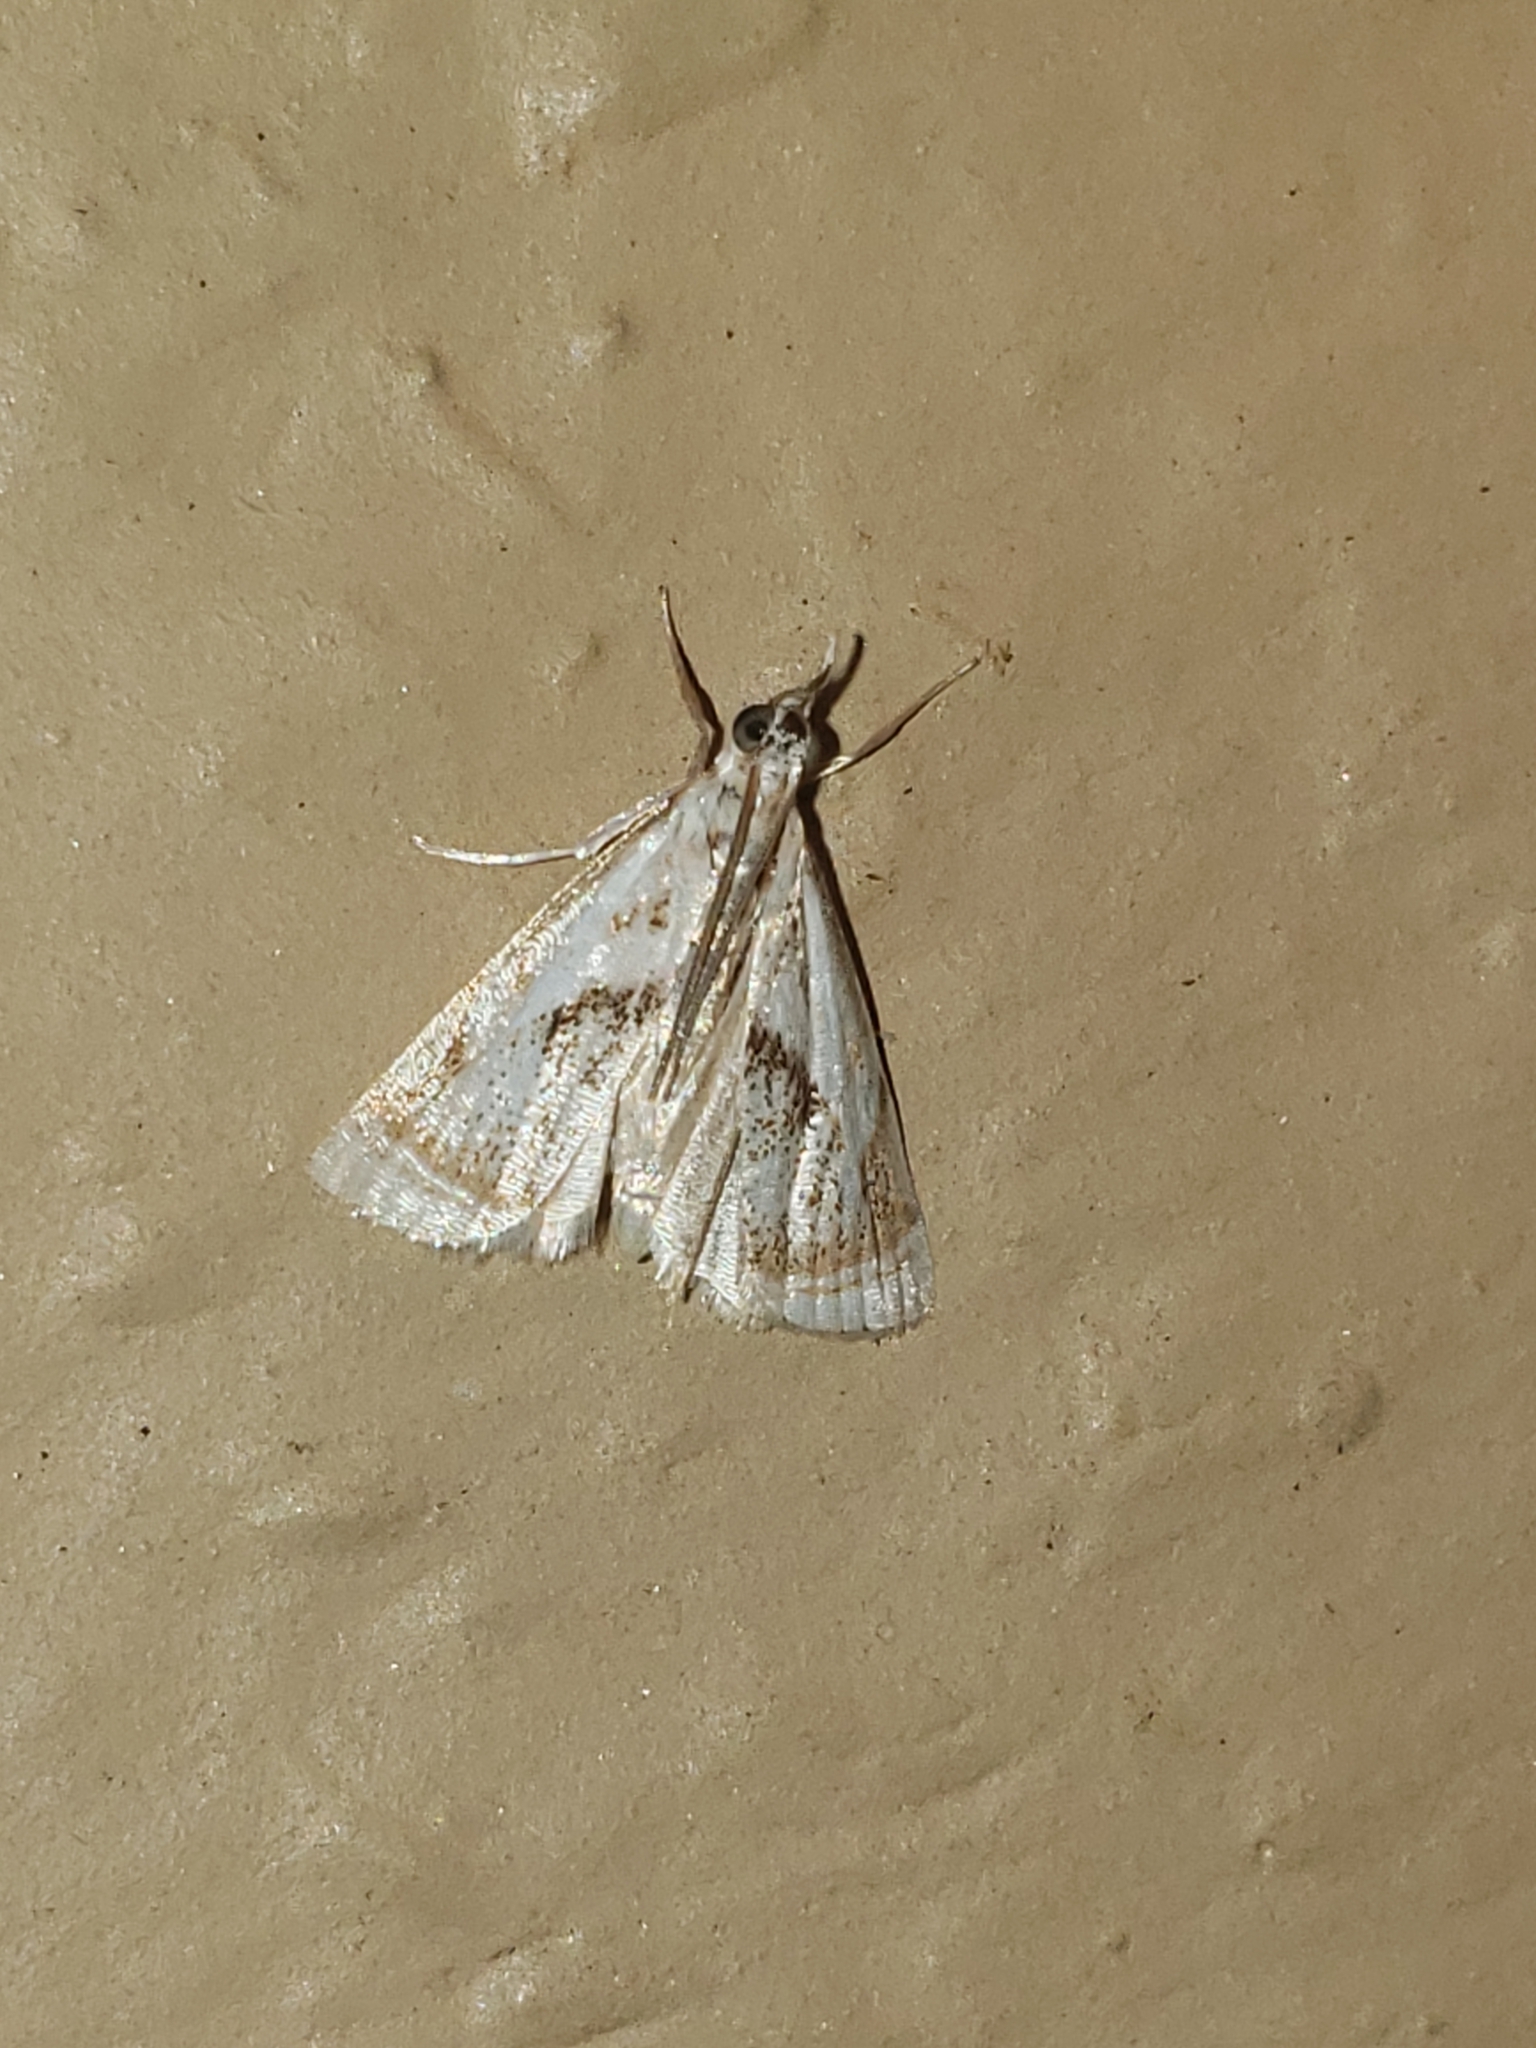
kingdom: Animalia
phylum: Arthropoda
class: Insecta
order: Lepidoptera
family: Crambidae
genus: Microcrambus
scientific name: Microcrambus elegans
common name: Elegant grass-veneer
